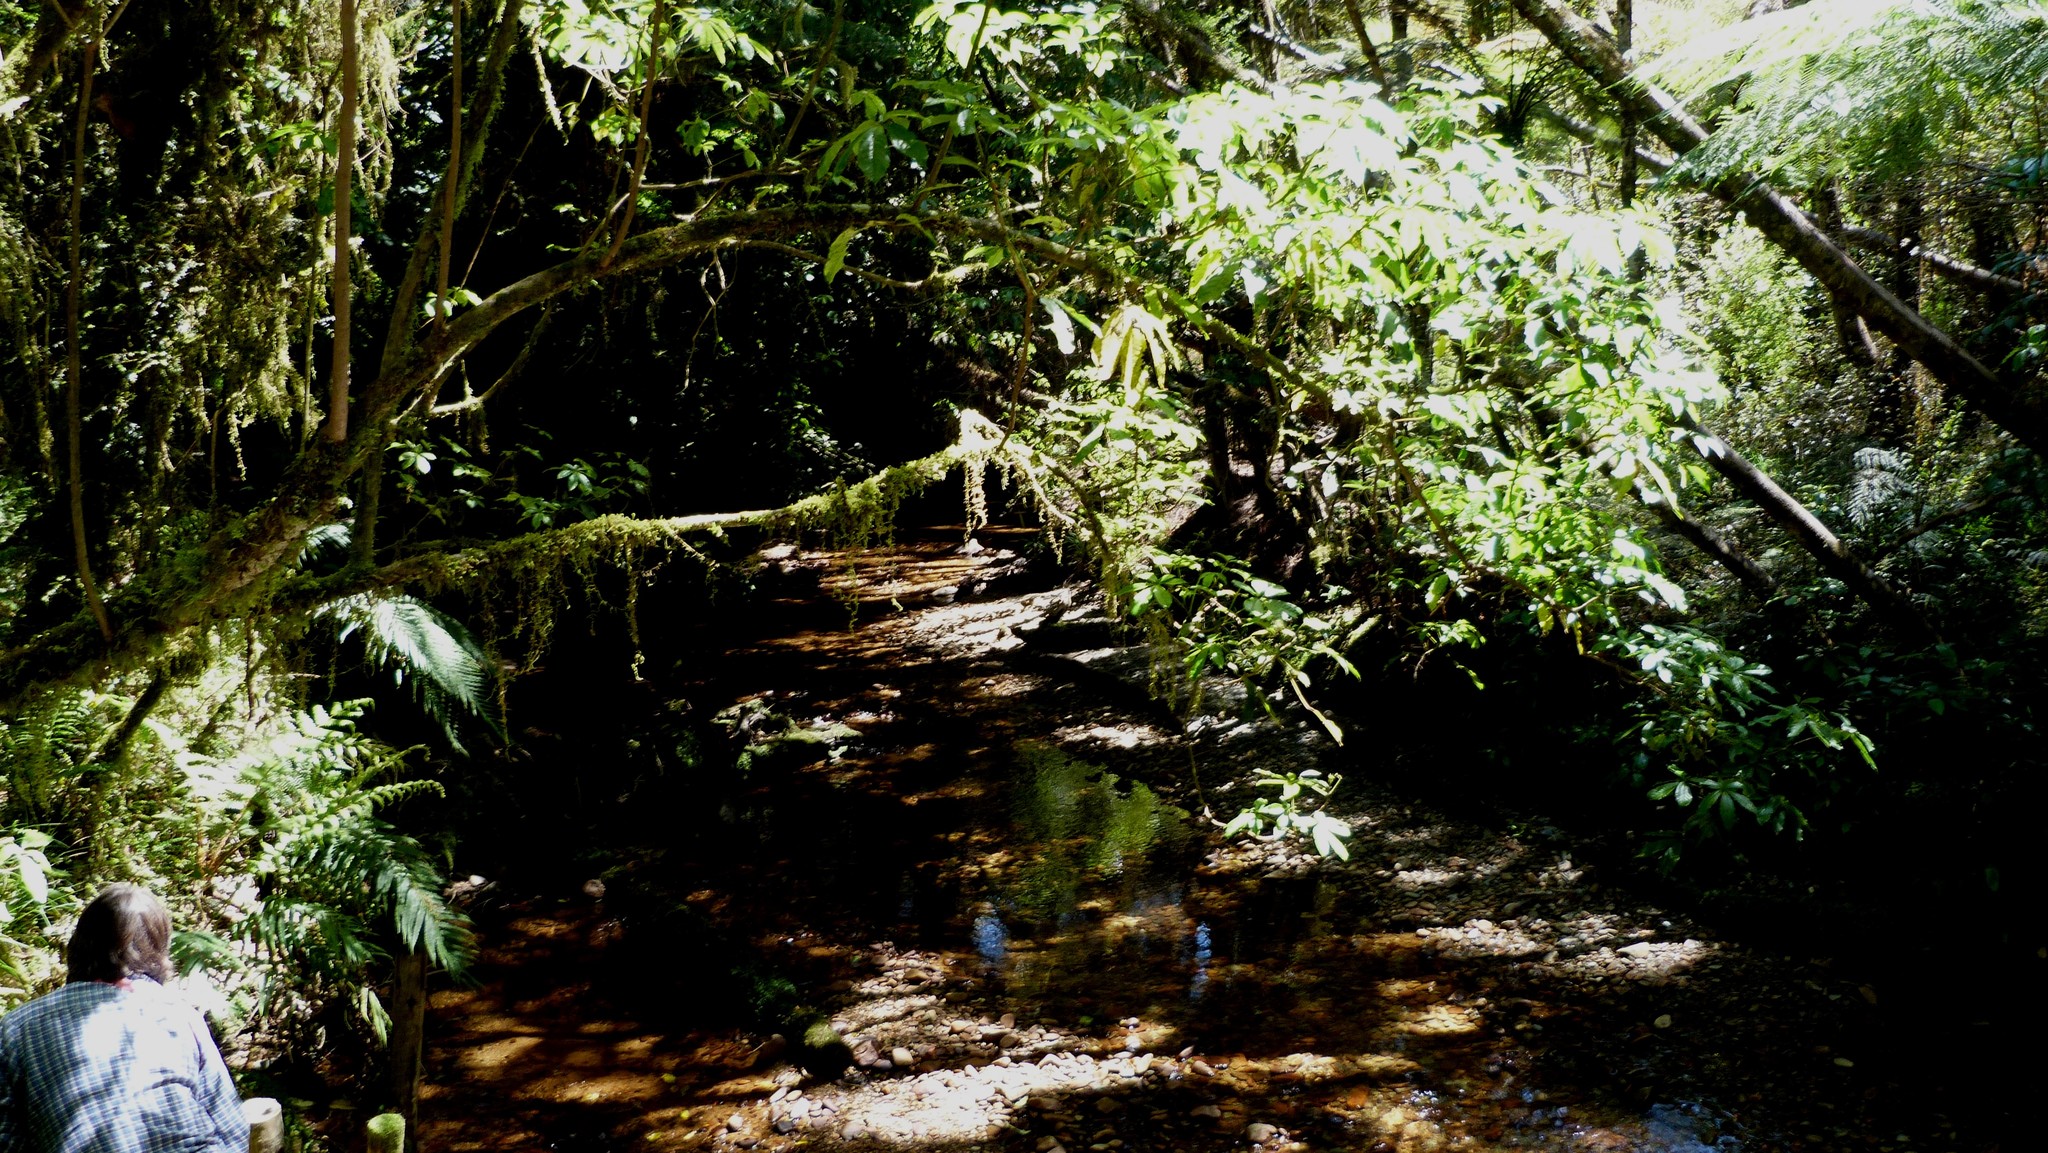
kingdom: Plantae
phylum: Tracheophyta
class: Magnoliopsida
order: Apiales
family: Araliaceae
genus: Schefflera
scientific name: Schefflera digitata
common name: Pate
